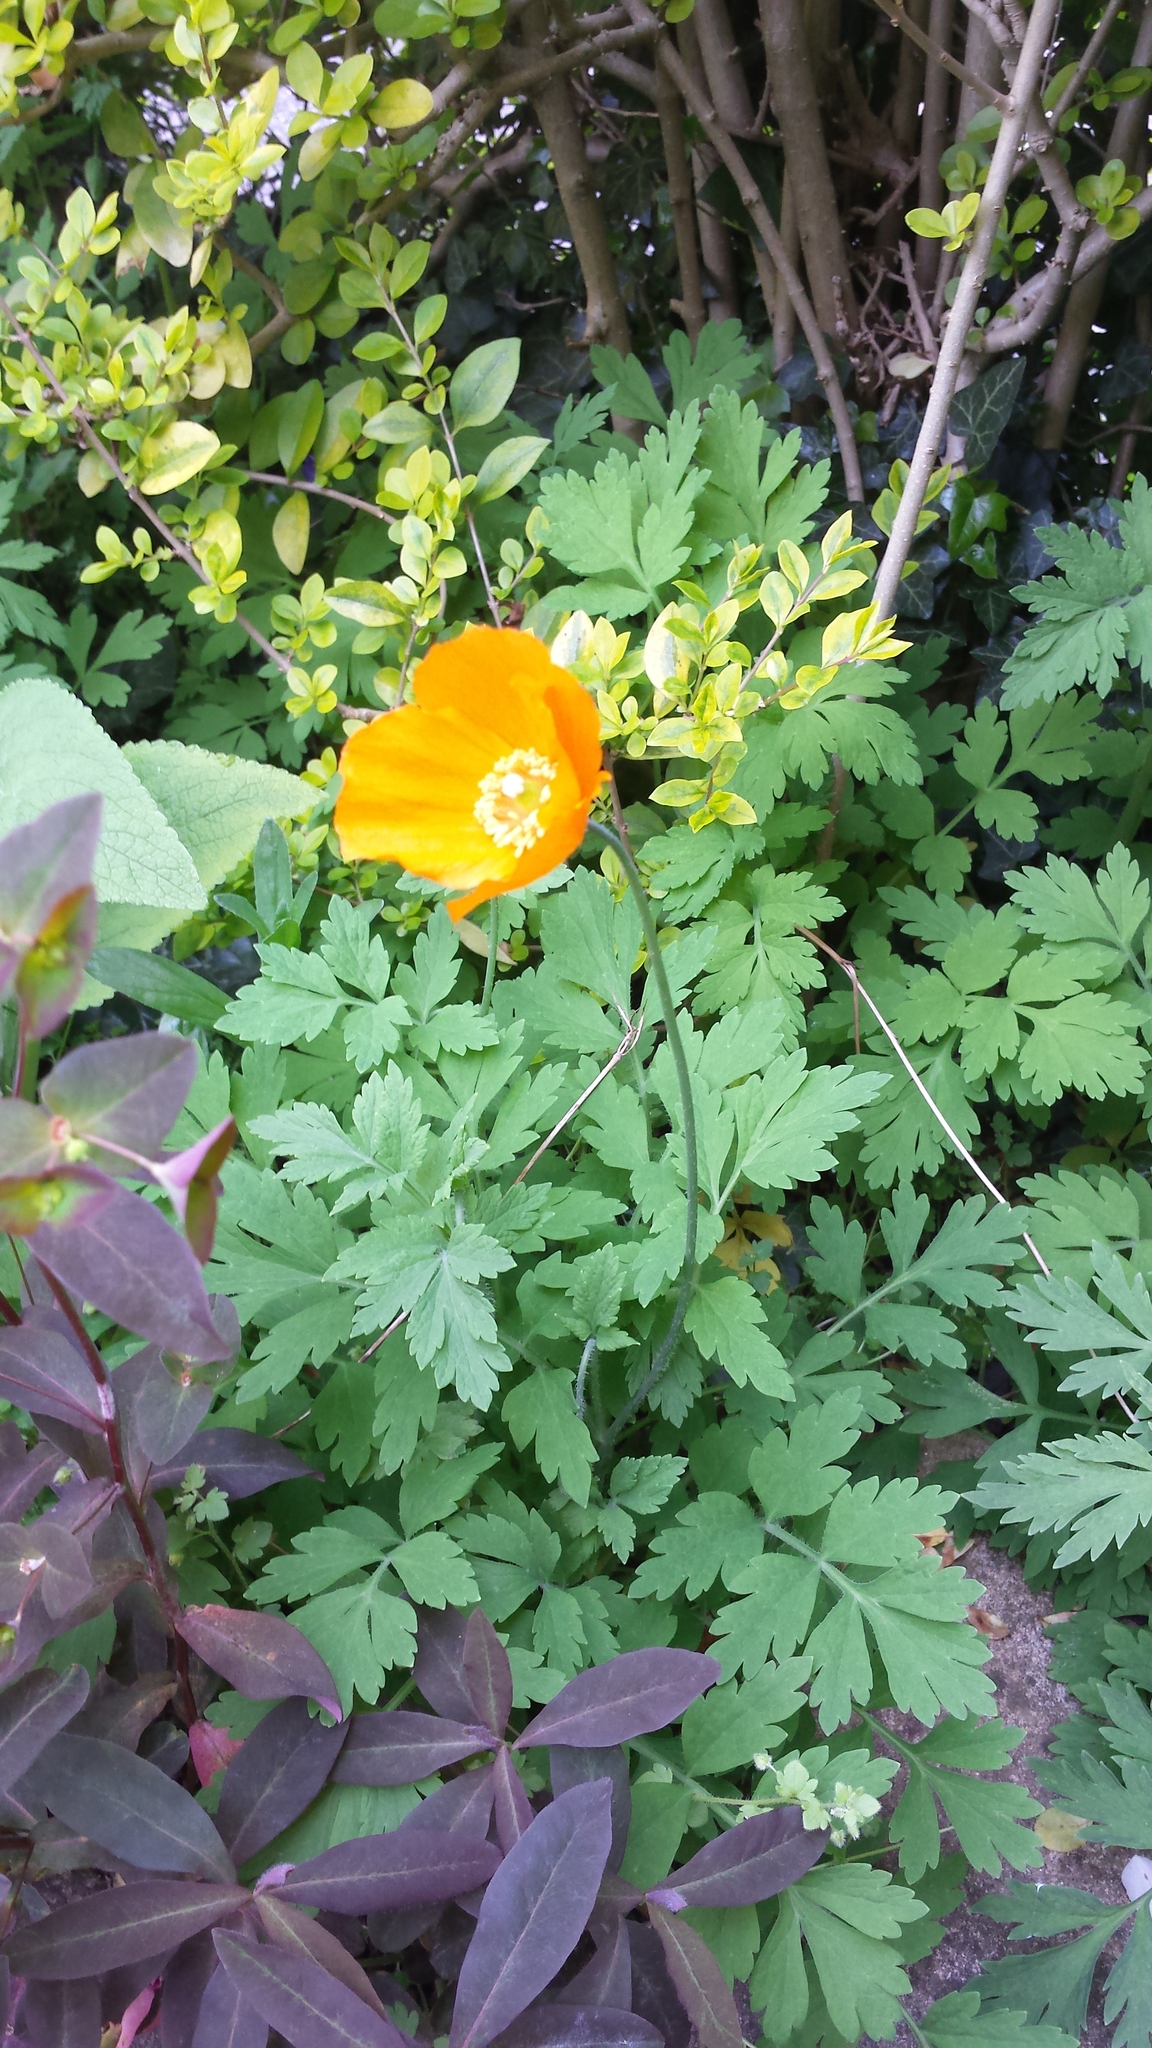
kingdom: Plantae
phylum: Tracheophyta
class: Magnoliopsida
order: Ranunculales
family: Papaveraceae
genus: Papaver
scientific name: Papaver cambricum
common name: Poppy
